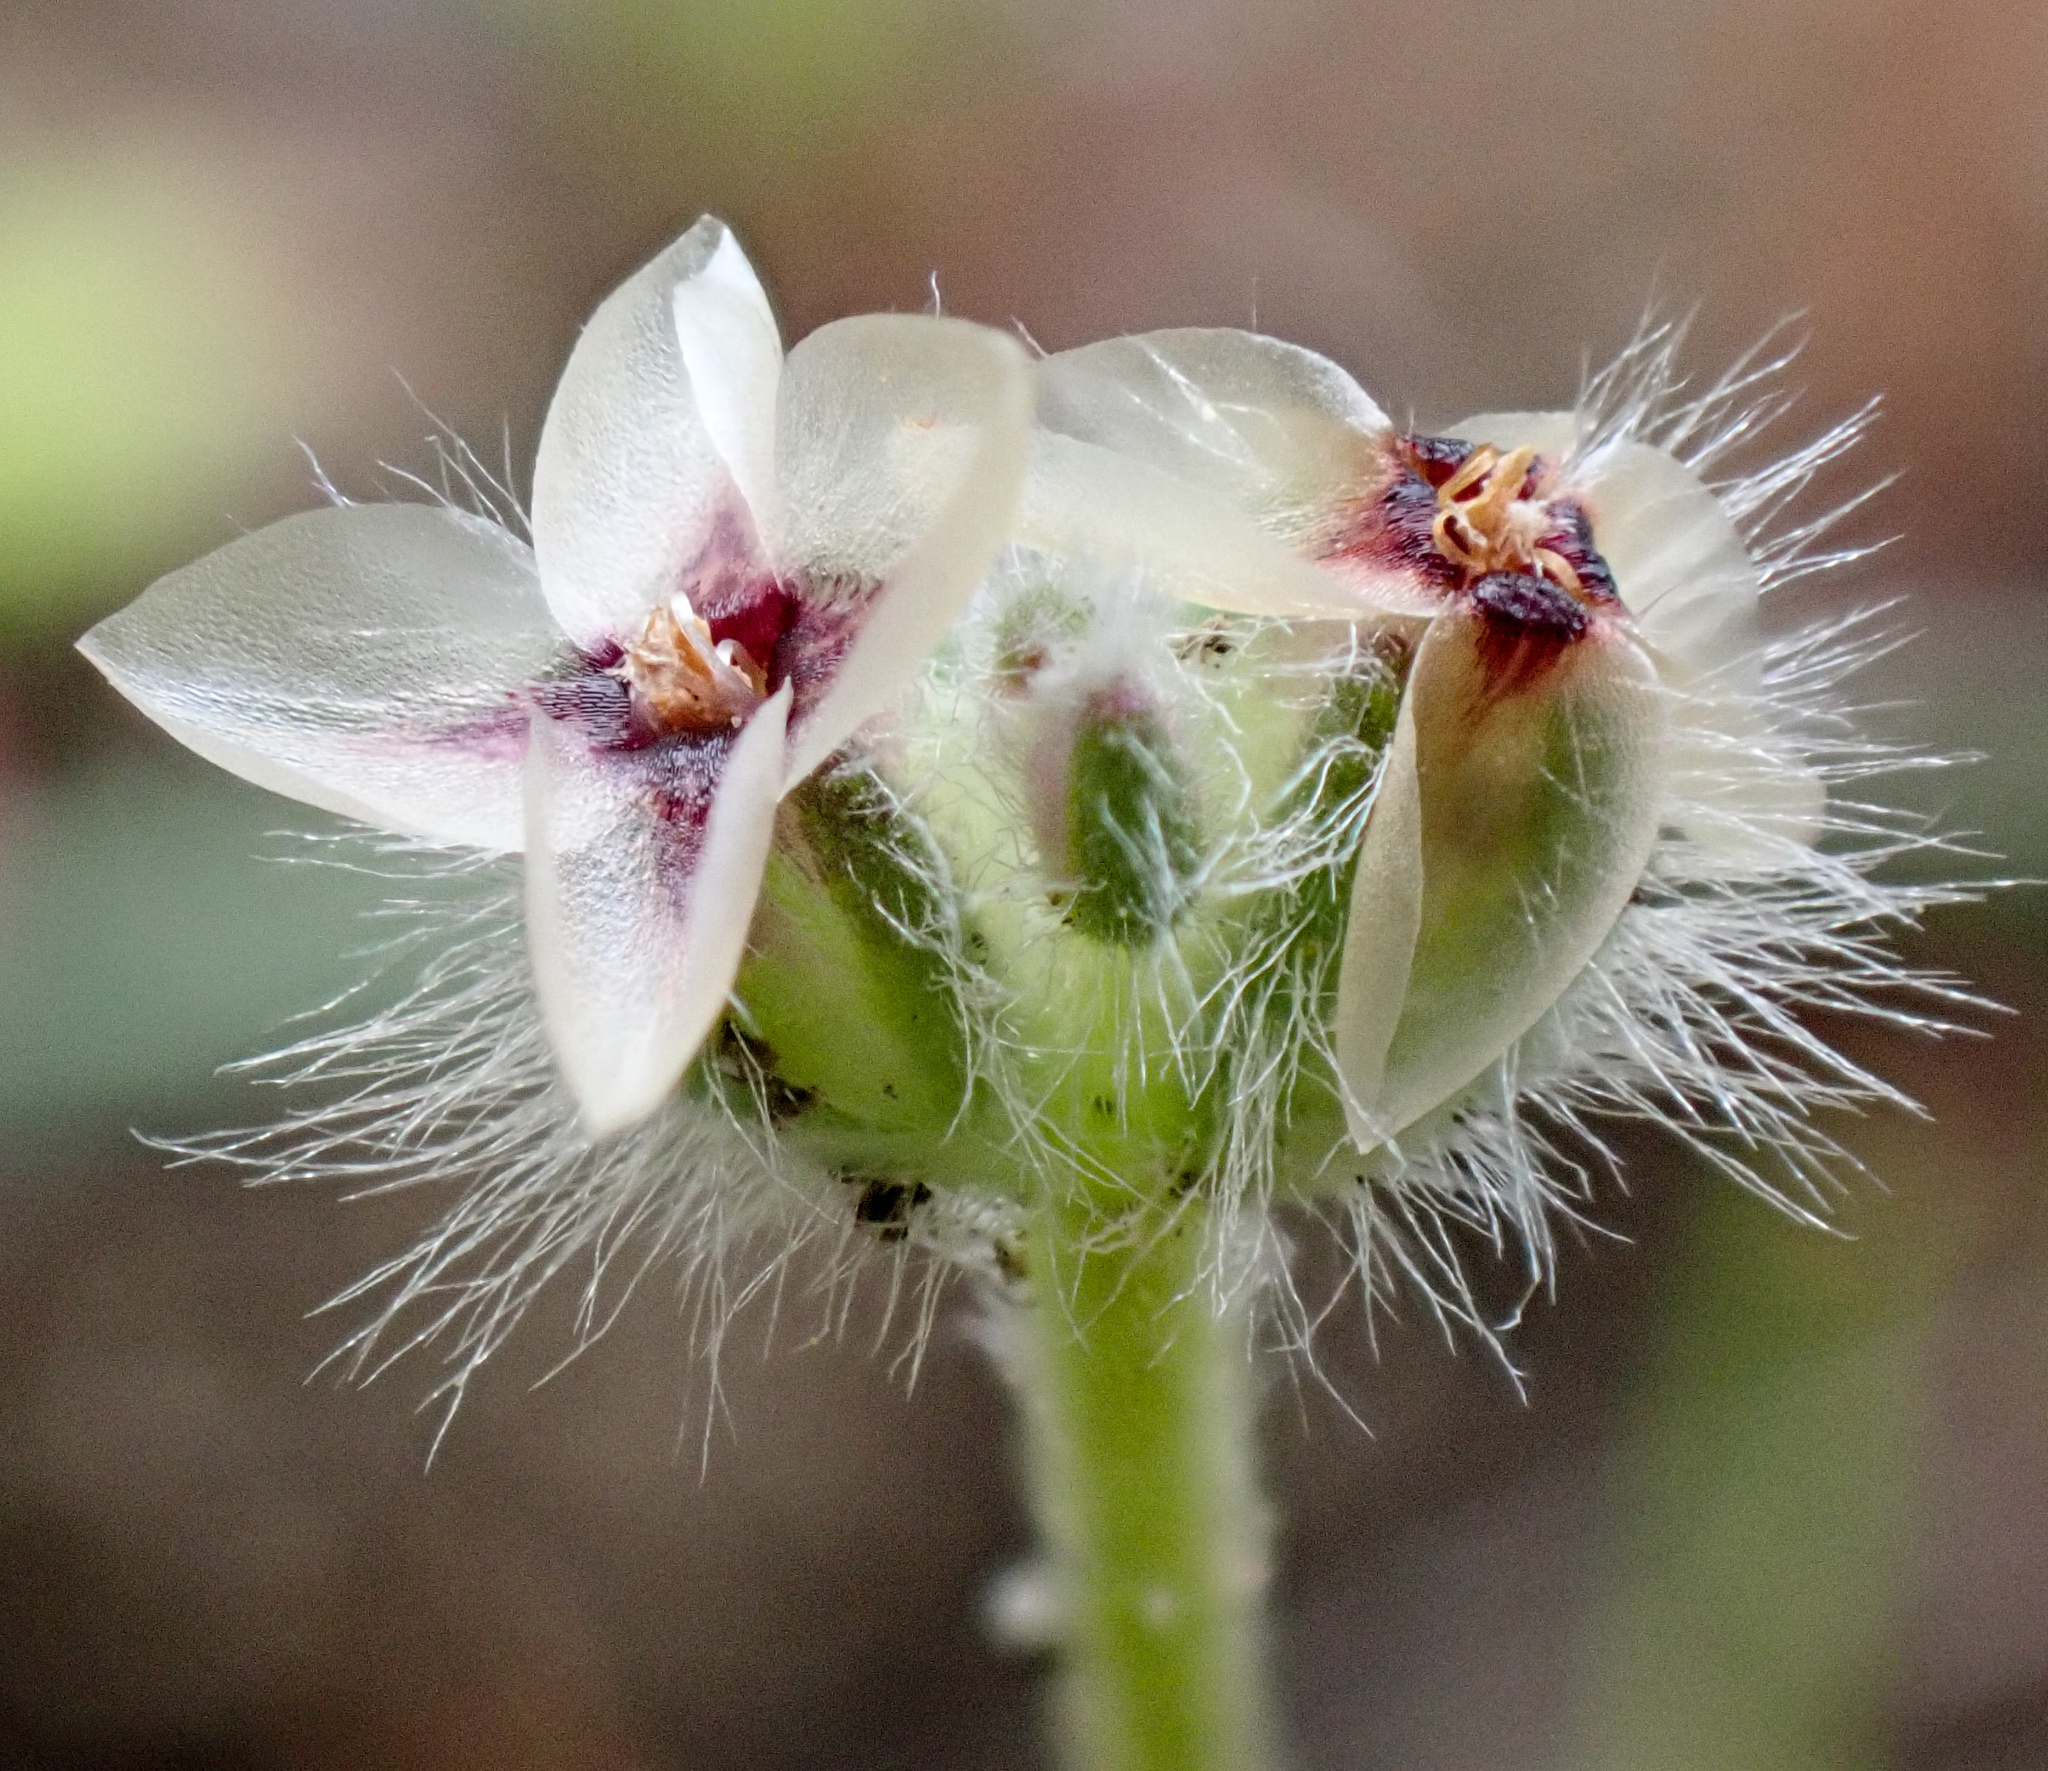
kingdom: Plantae
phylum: Tracheophyta
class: Magnoliopsida
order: Lamiales
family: Plantaginaceae
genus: Plantago
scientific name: Plantago erecta
